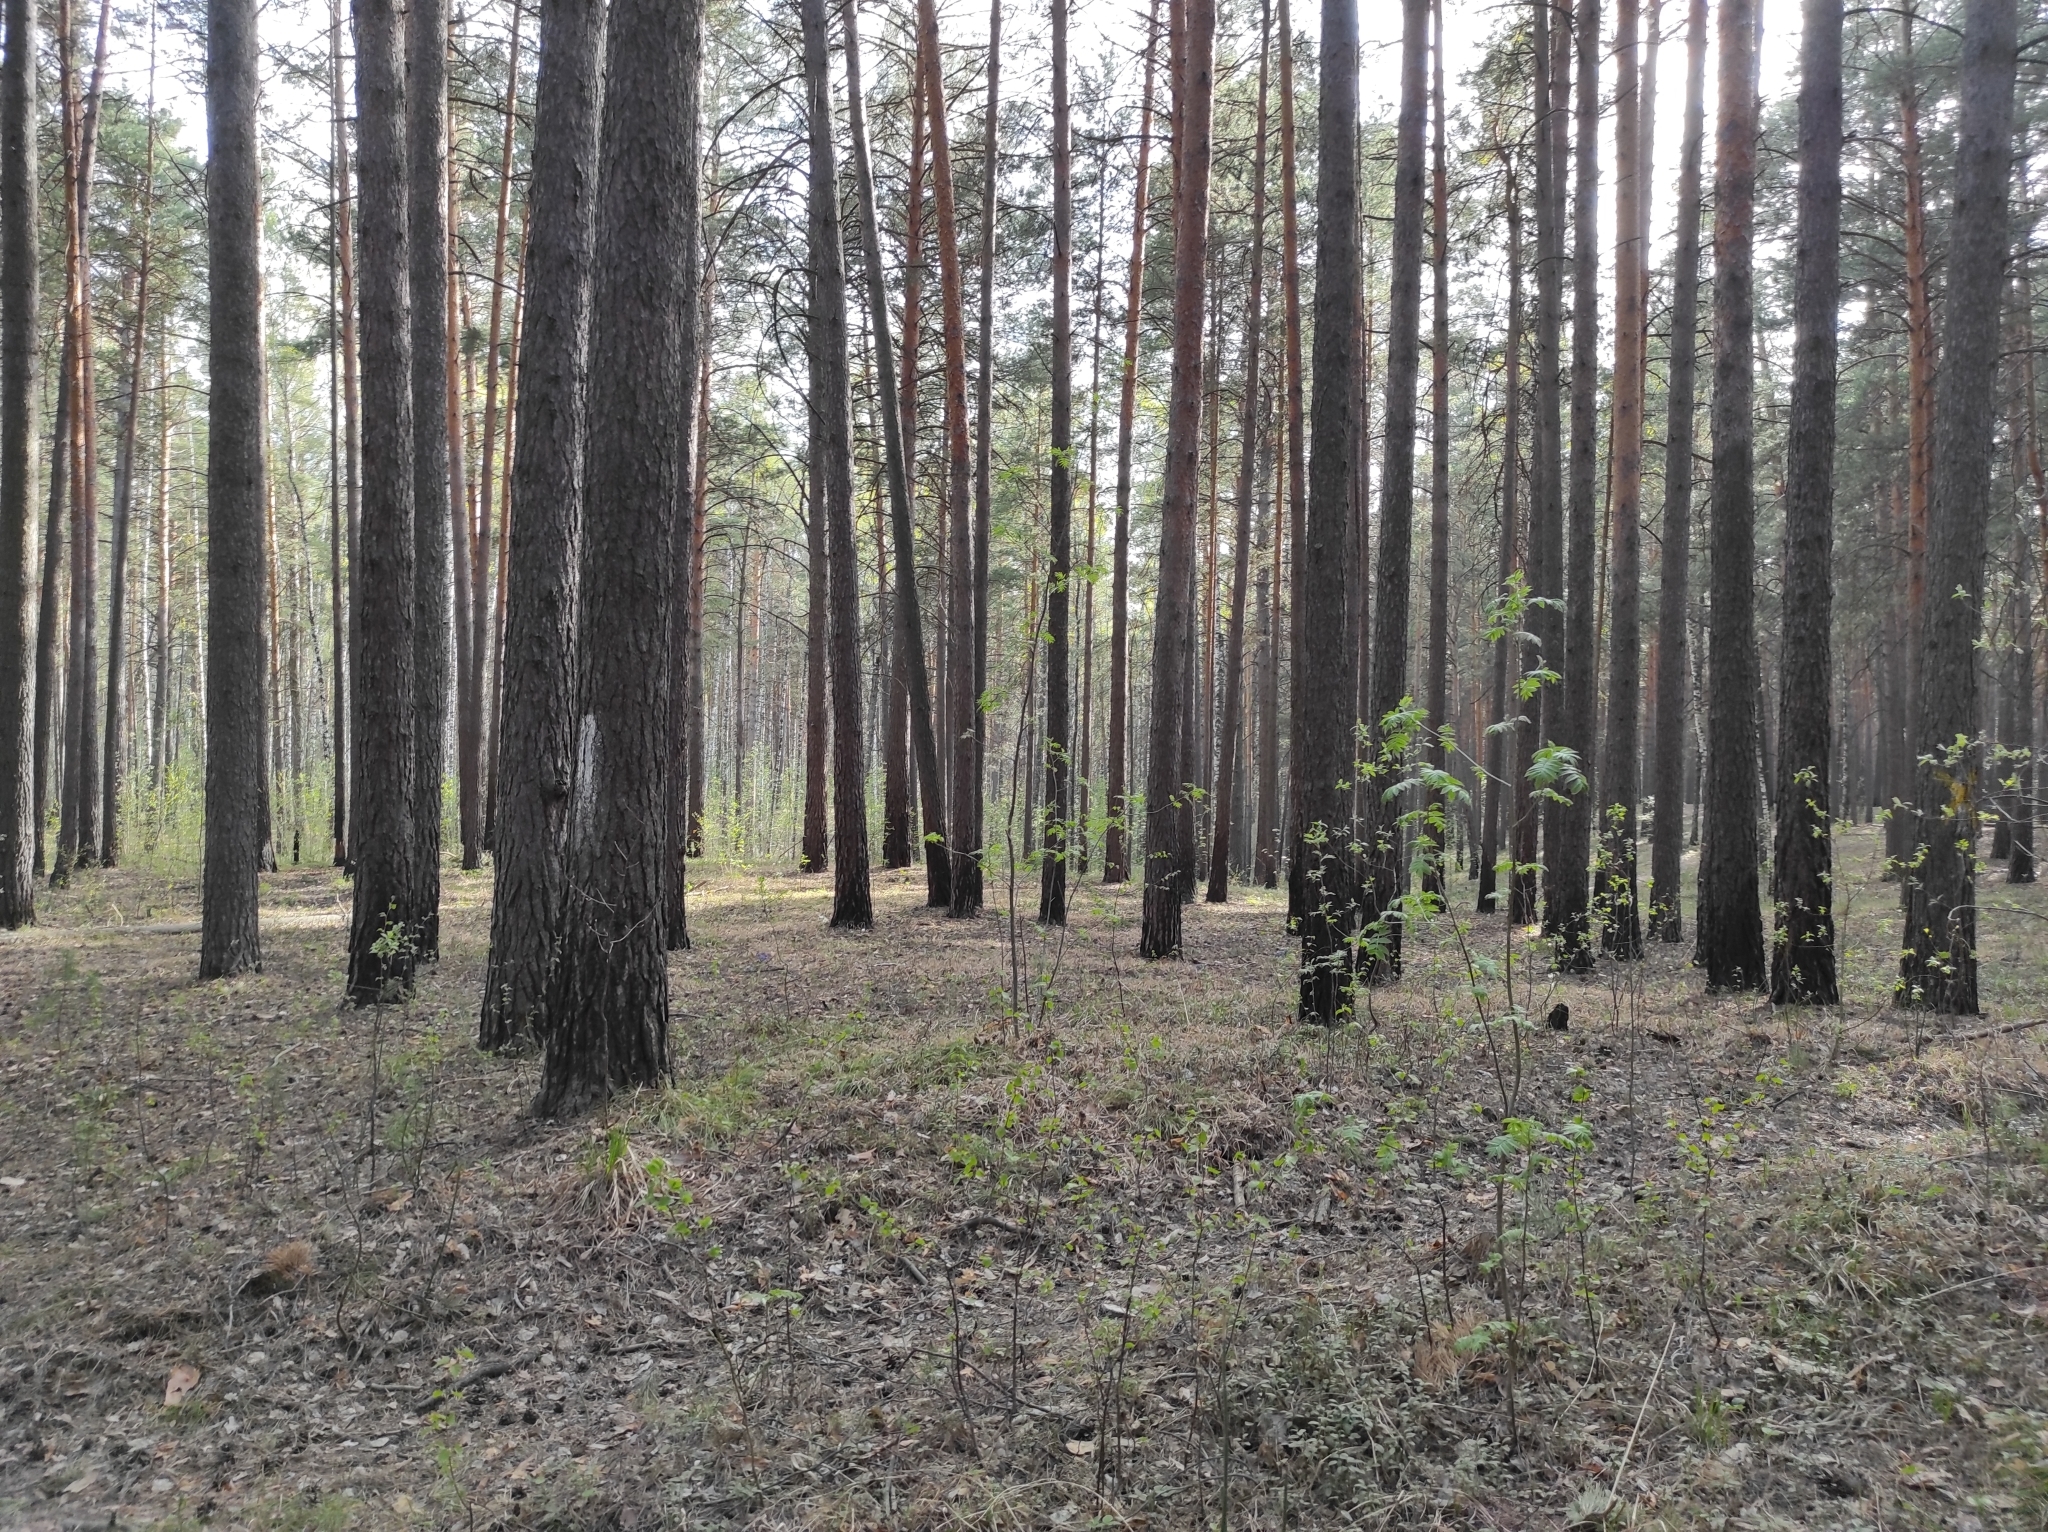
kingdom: Plantae
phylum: Tracheophyta
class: Magnoliopsida
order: Ranunculales
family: Ranunculaceae
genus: Pulsatilla
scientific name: Pulsatilla patens
